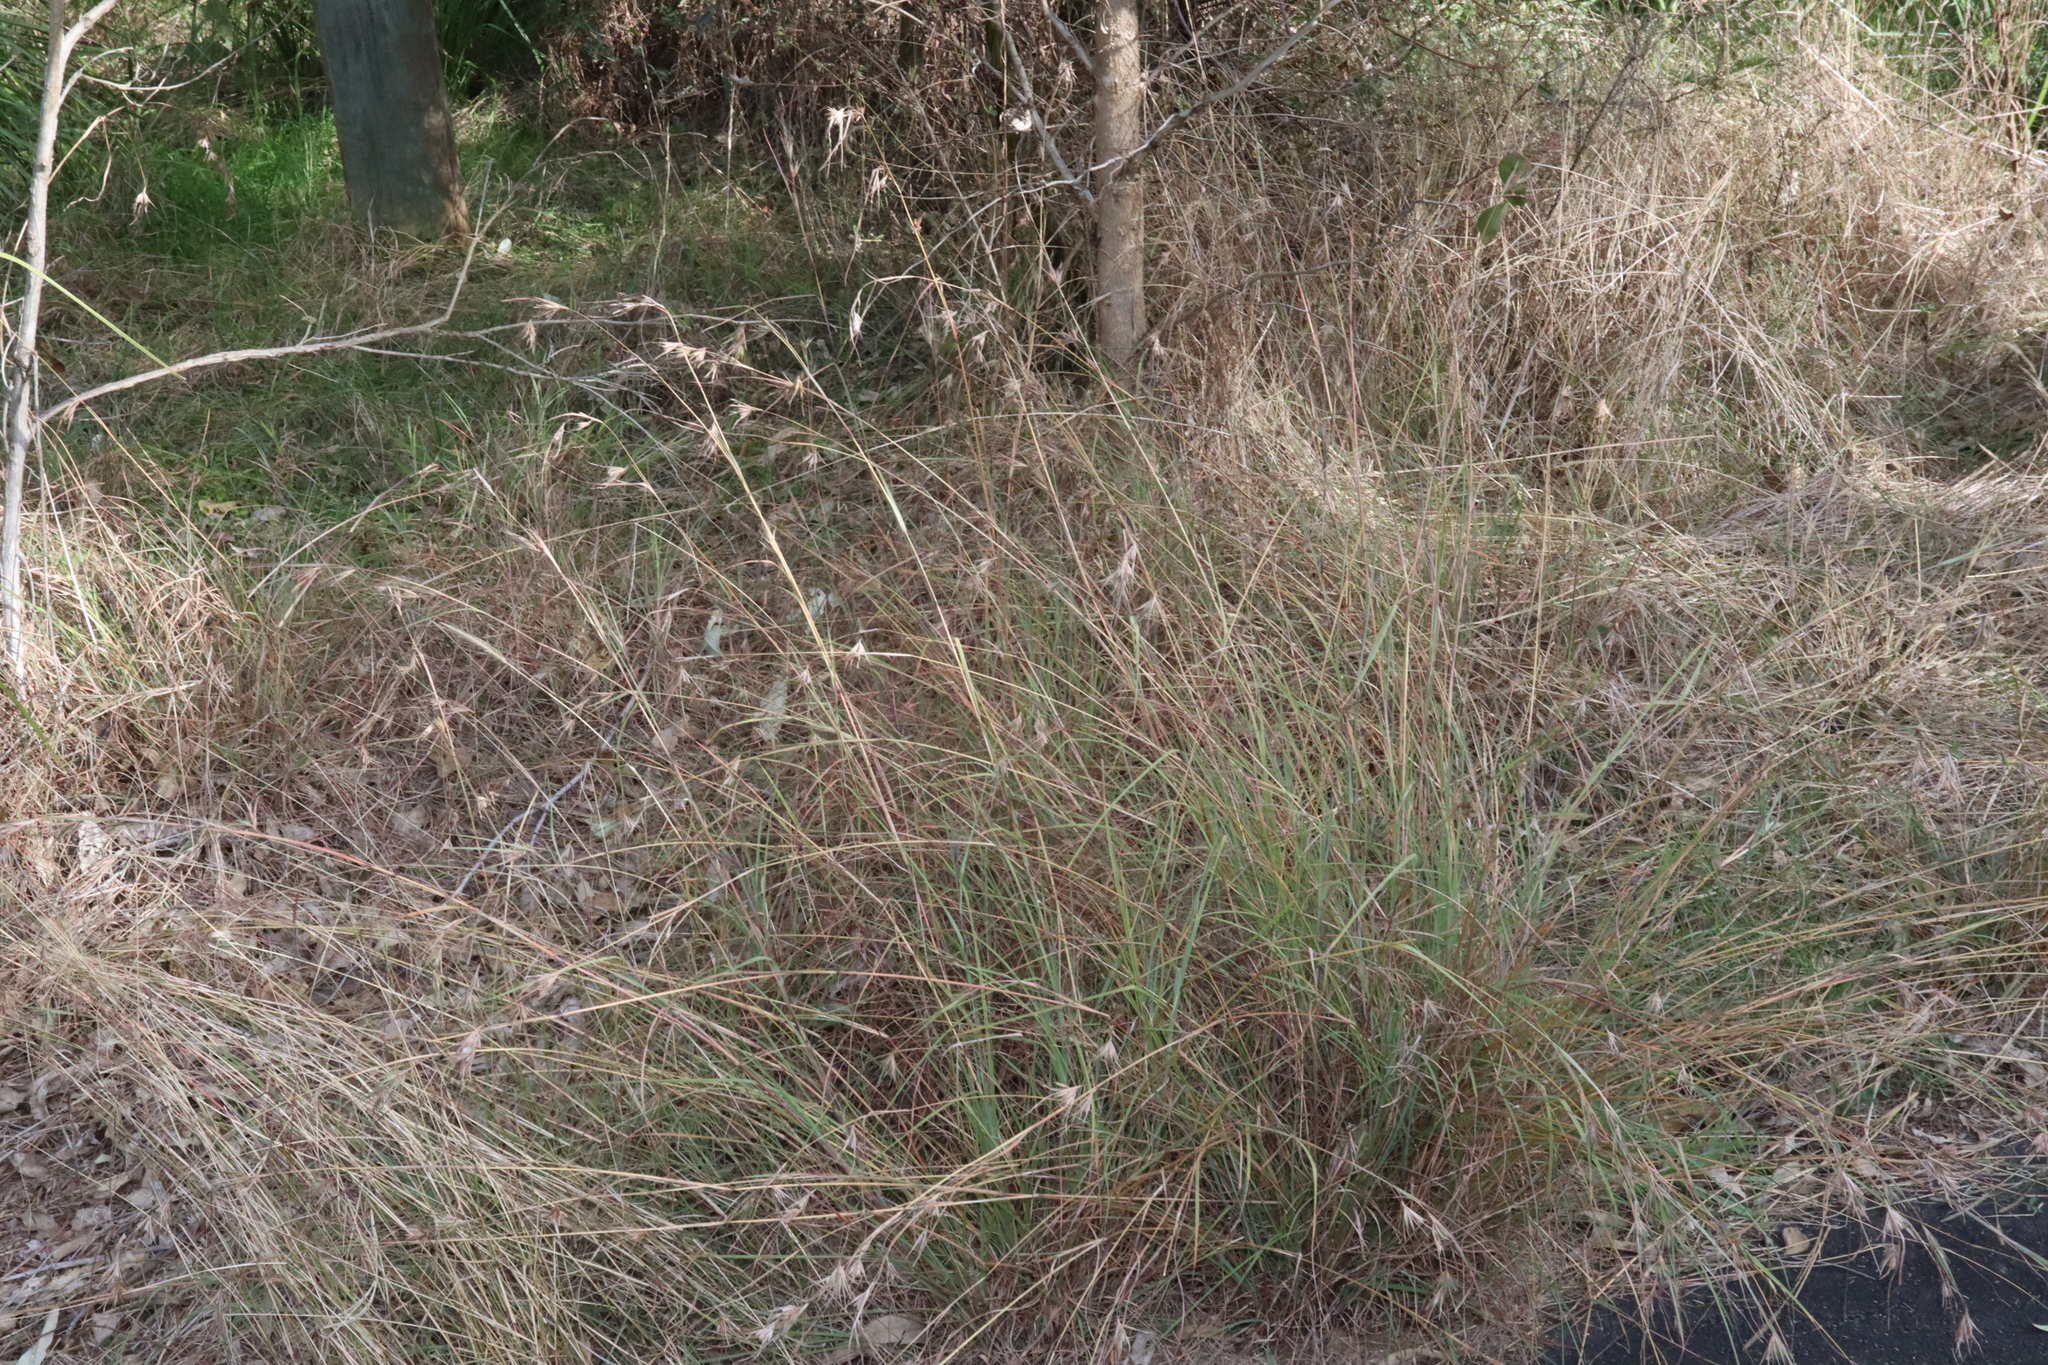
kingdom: Plantae
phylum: Tracheophyta
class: Liliopsida
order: Poales
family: Poaceae
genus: Themeda
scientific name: Themeda triandra
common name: Kangaroo grass
